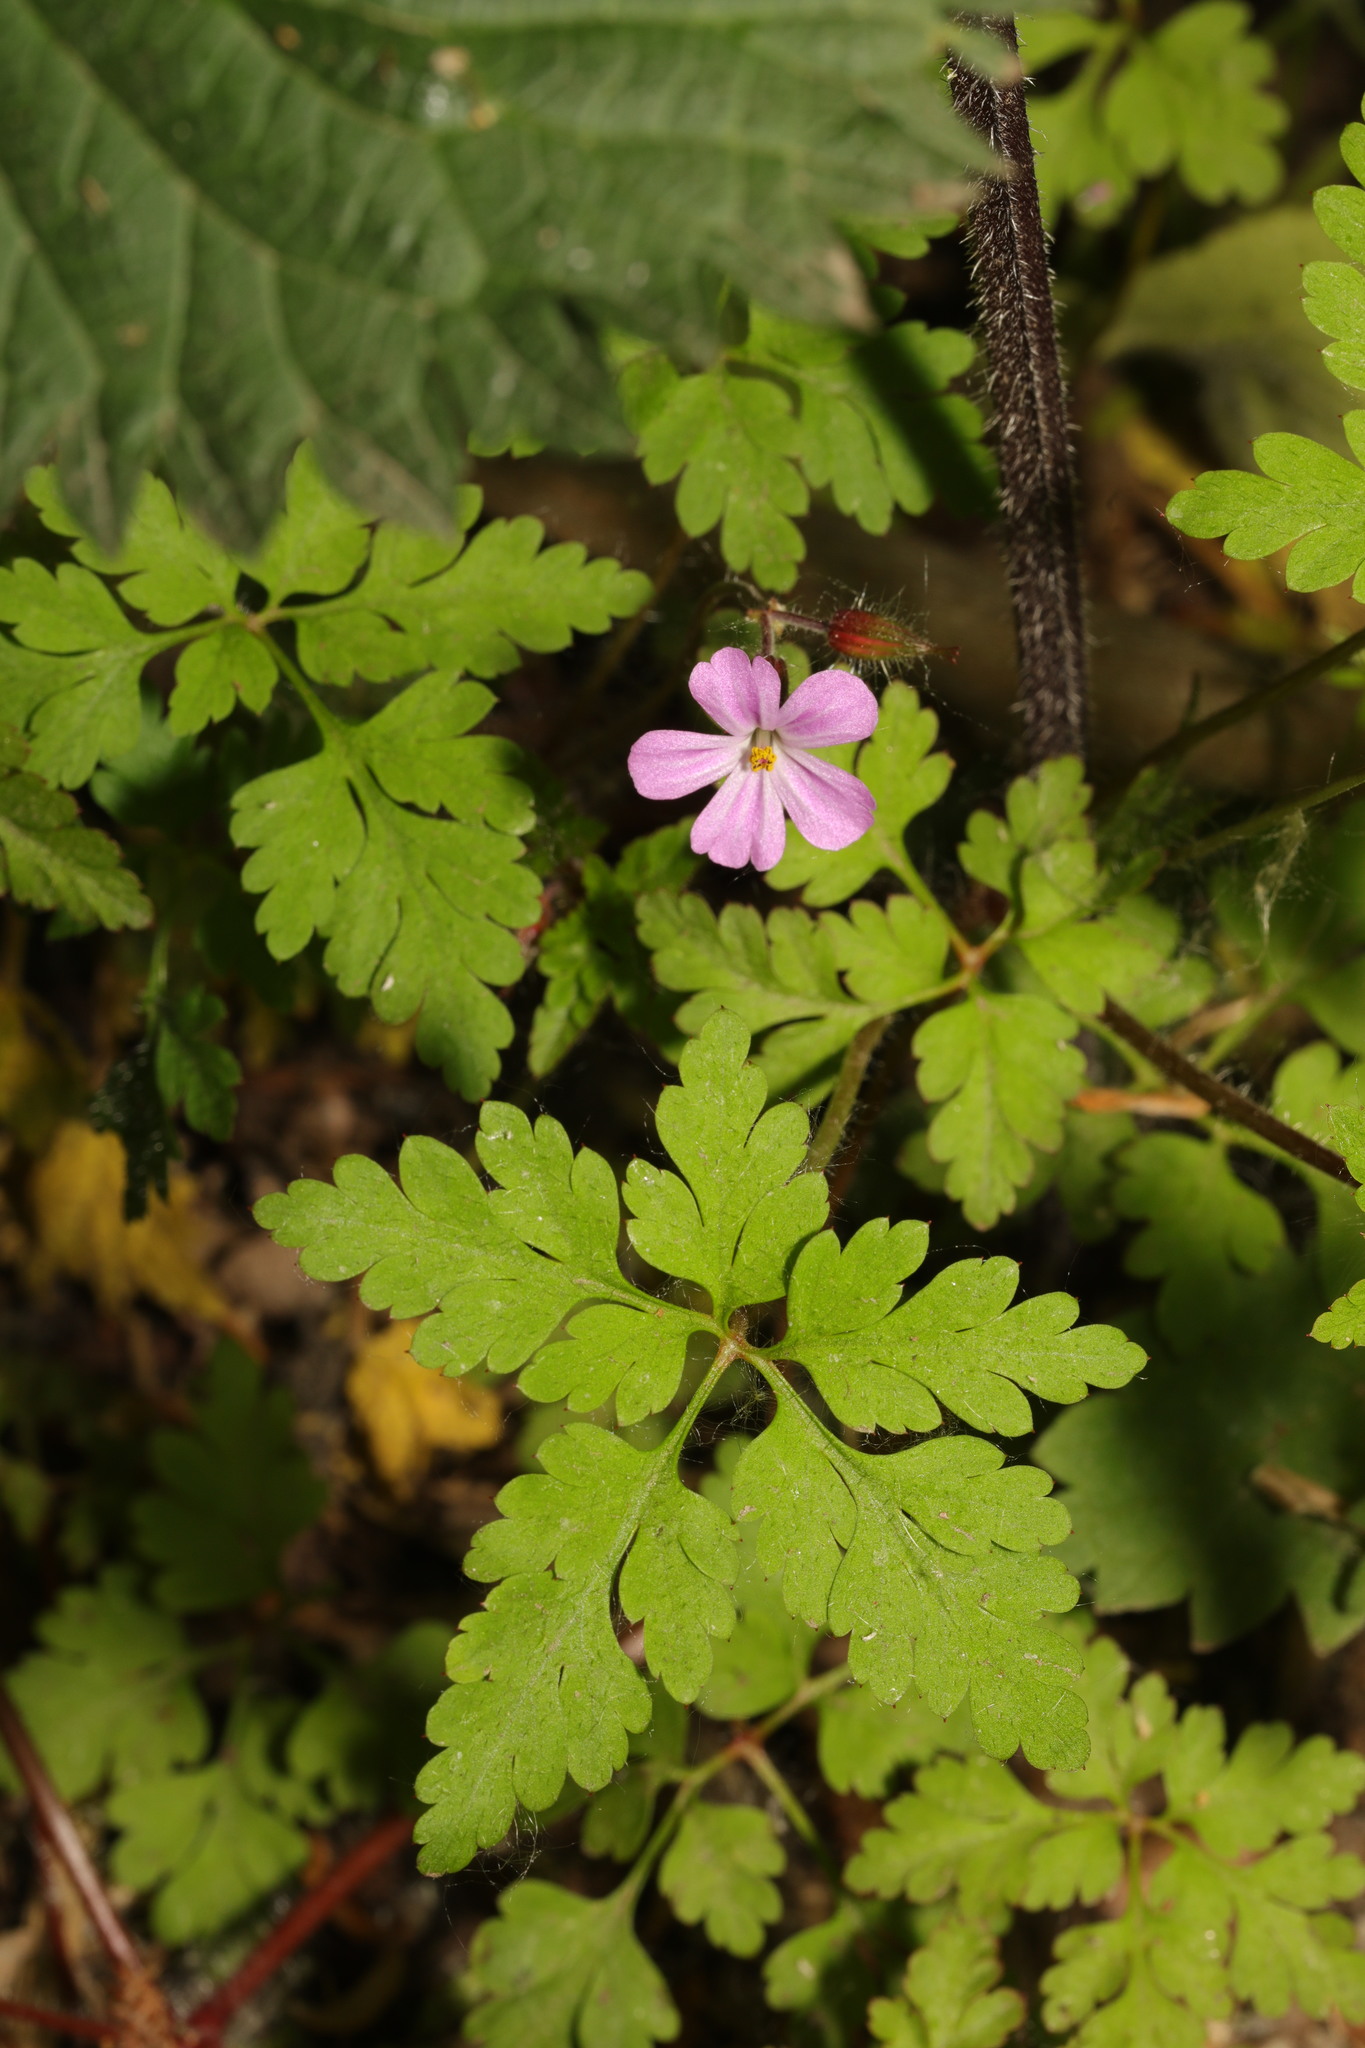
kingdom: Plantae
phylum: Tracheophyta
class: Magnoliopsida
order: Geraniales
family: Geraniaceae
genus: Geranium
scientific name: Geranium robertianum
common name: Herb-robert
